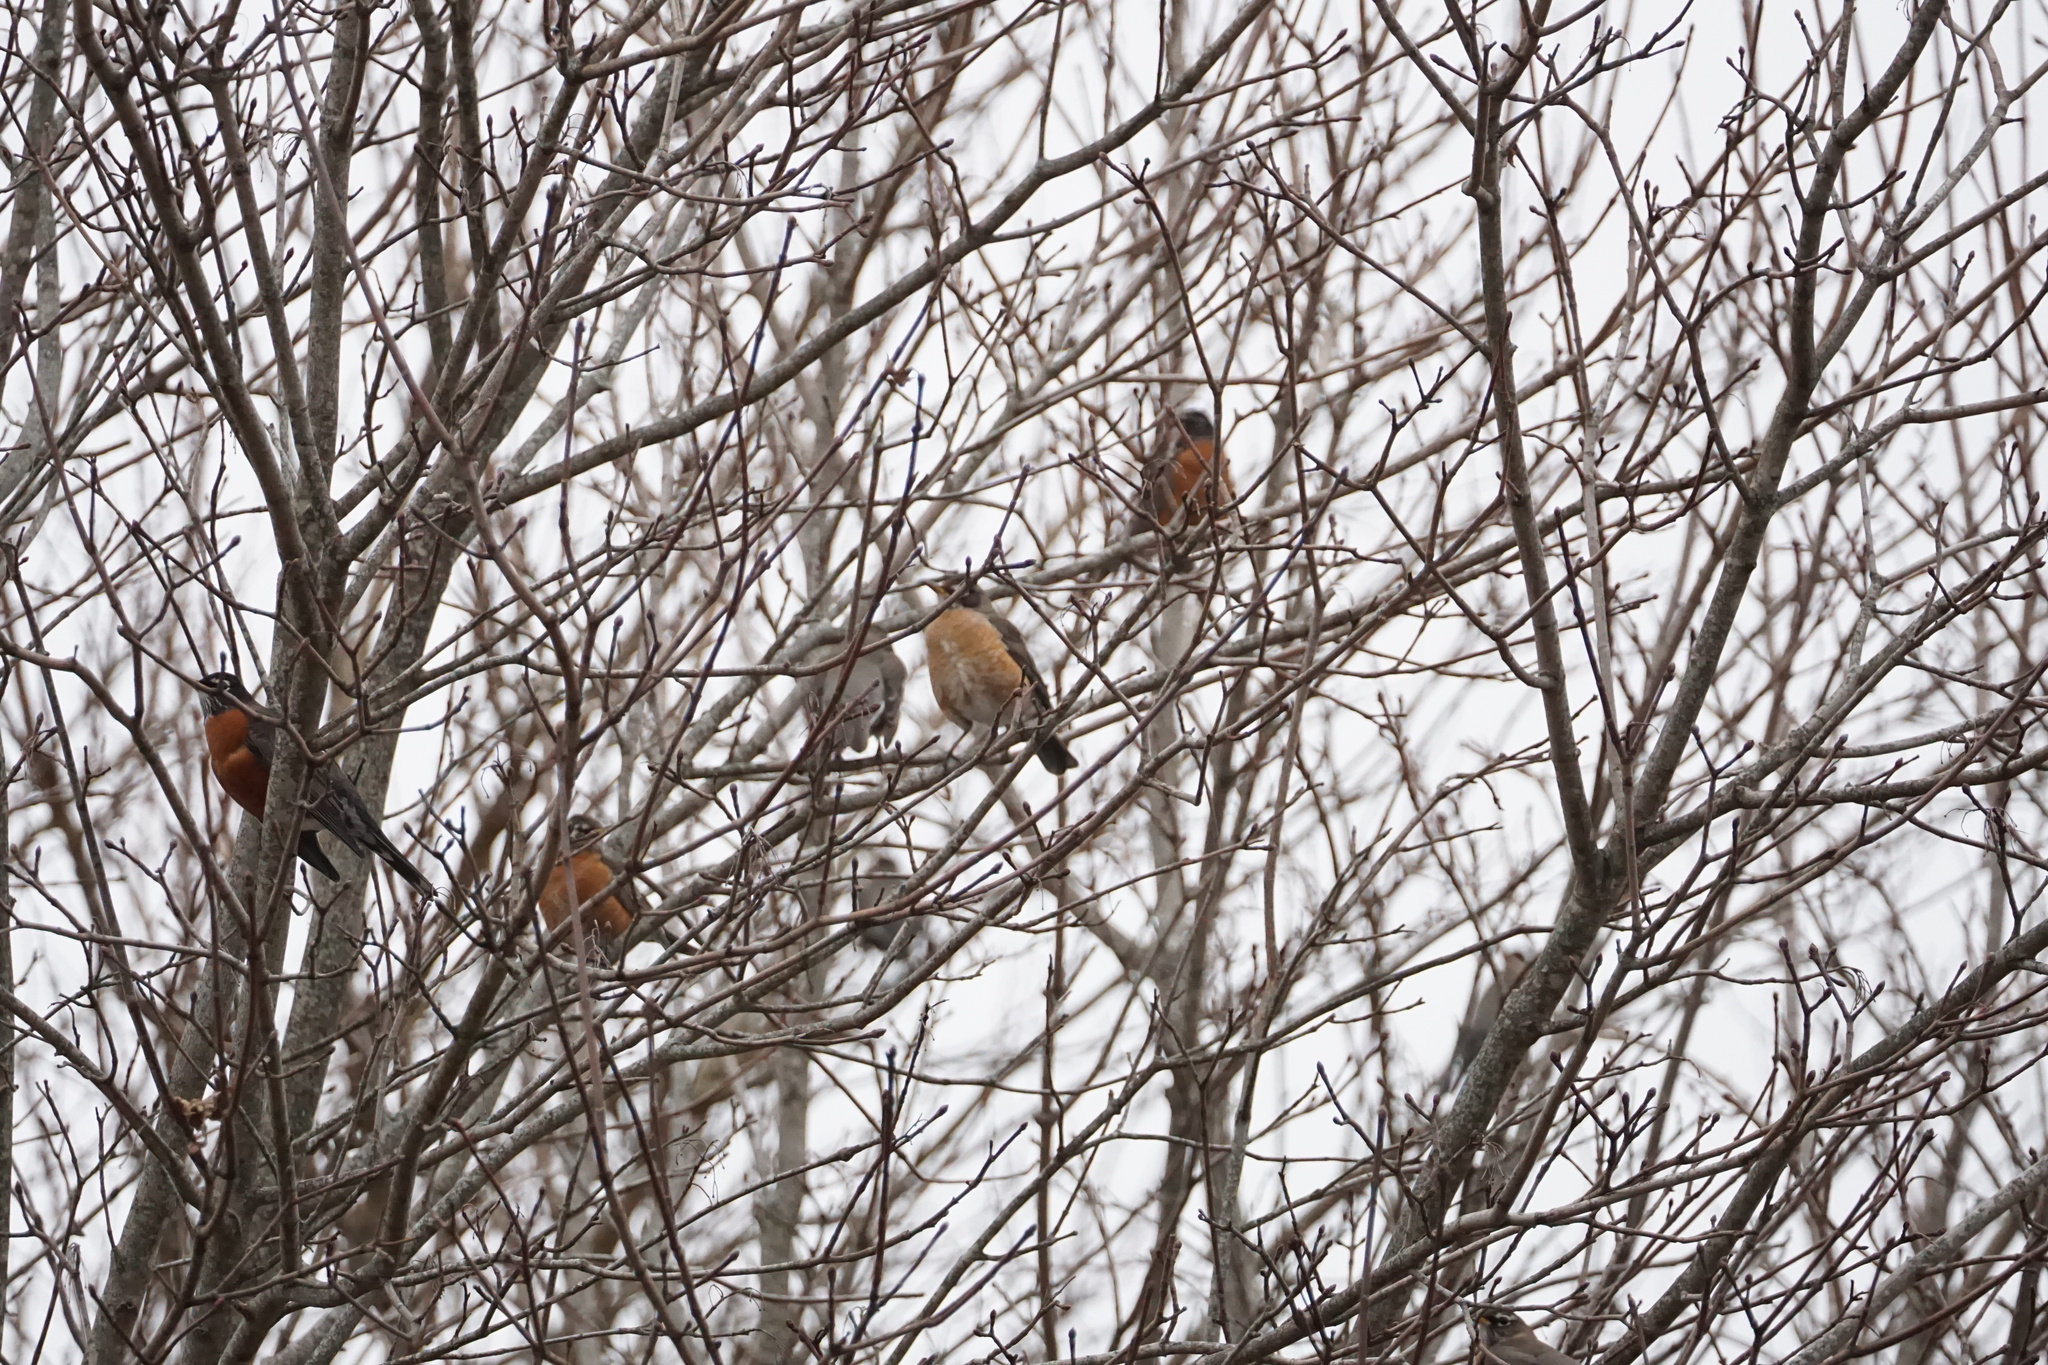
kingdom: Animalia
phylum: Chordata
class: Aves
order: Passeriformes
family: Turdidae
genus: Turdus
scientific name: Turdus migratorius
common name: American robin
